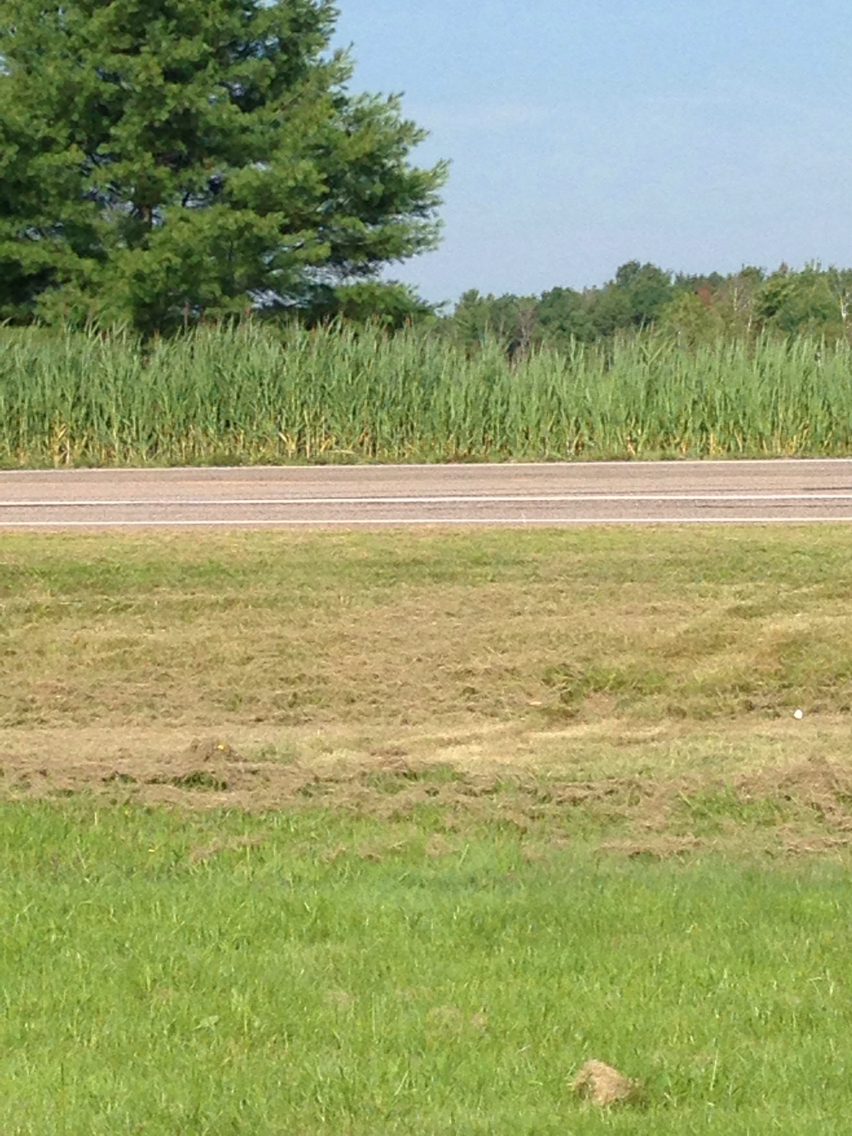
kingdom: Plantae
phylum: Tracheophyta
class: Liliopsida
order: Poales
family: Poaceae
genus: Phragmites
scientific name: Phragmites australis
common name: Common reed
